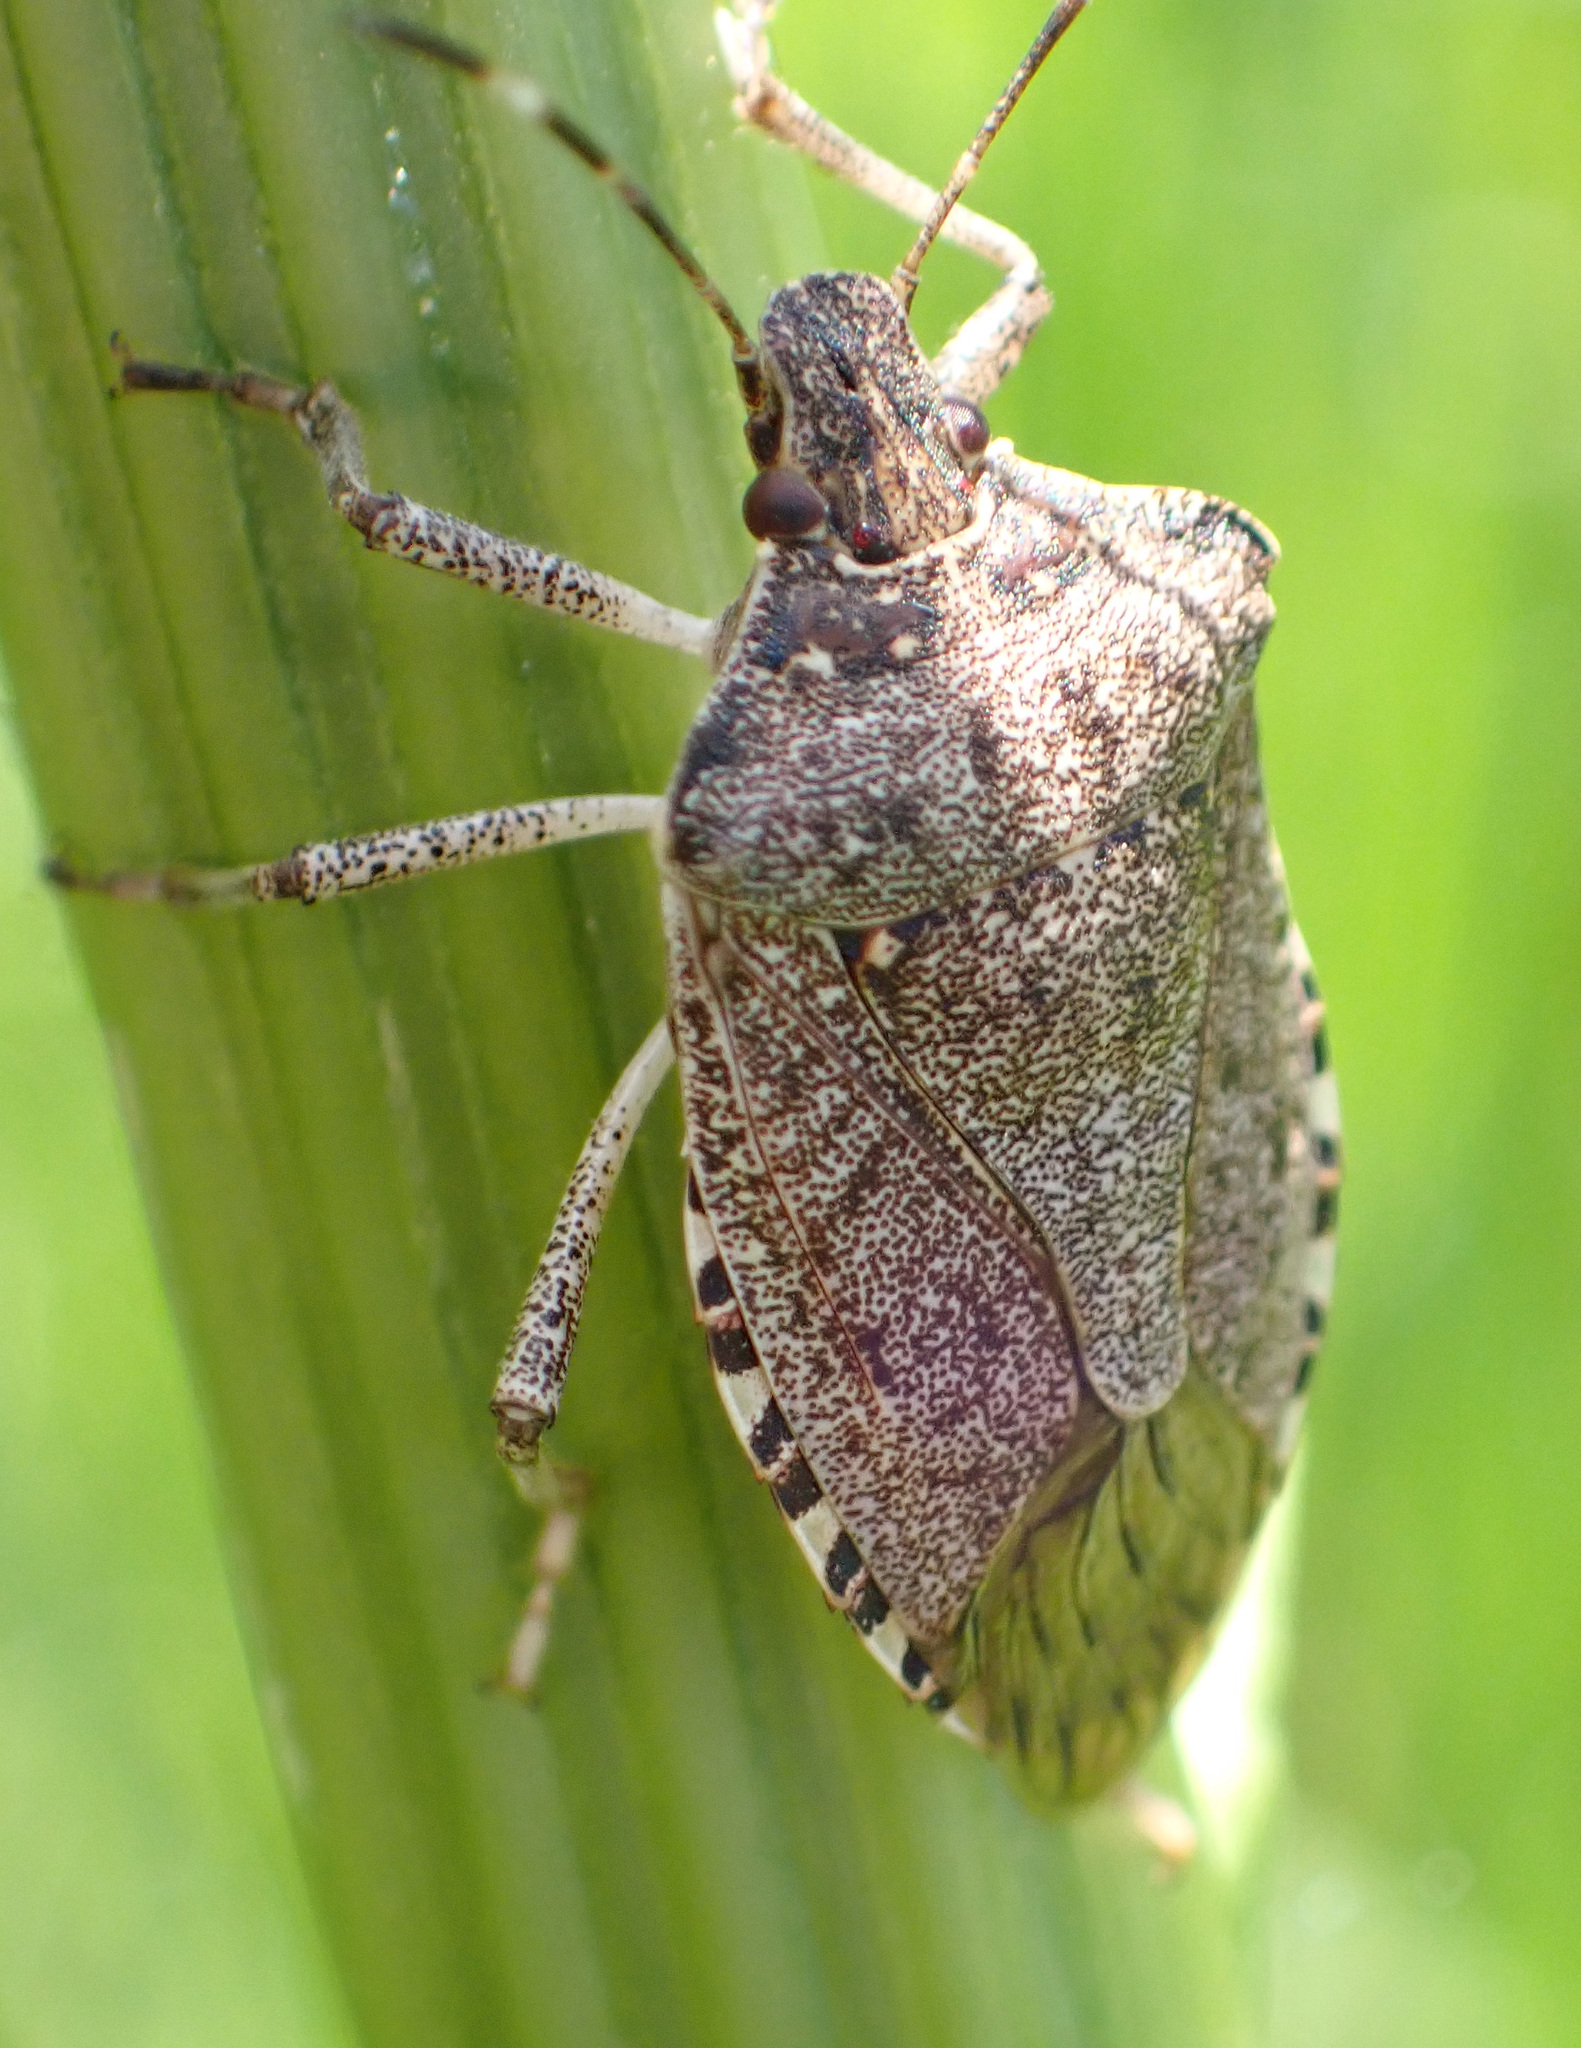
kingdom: Animalia
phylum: Arthropoda
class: Insecta
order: Hemiptera
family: Pentatomidae
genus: Halyomorpha
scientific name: Halyomorpha halys
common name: Brown marmorated stink bug
